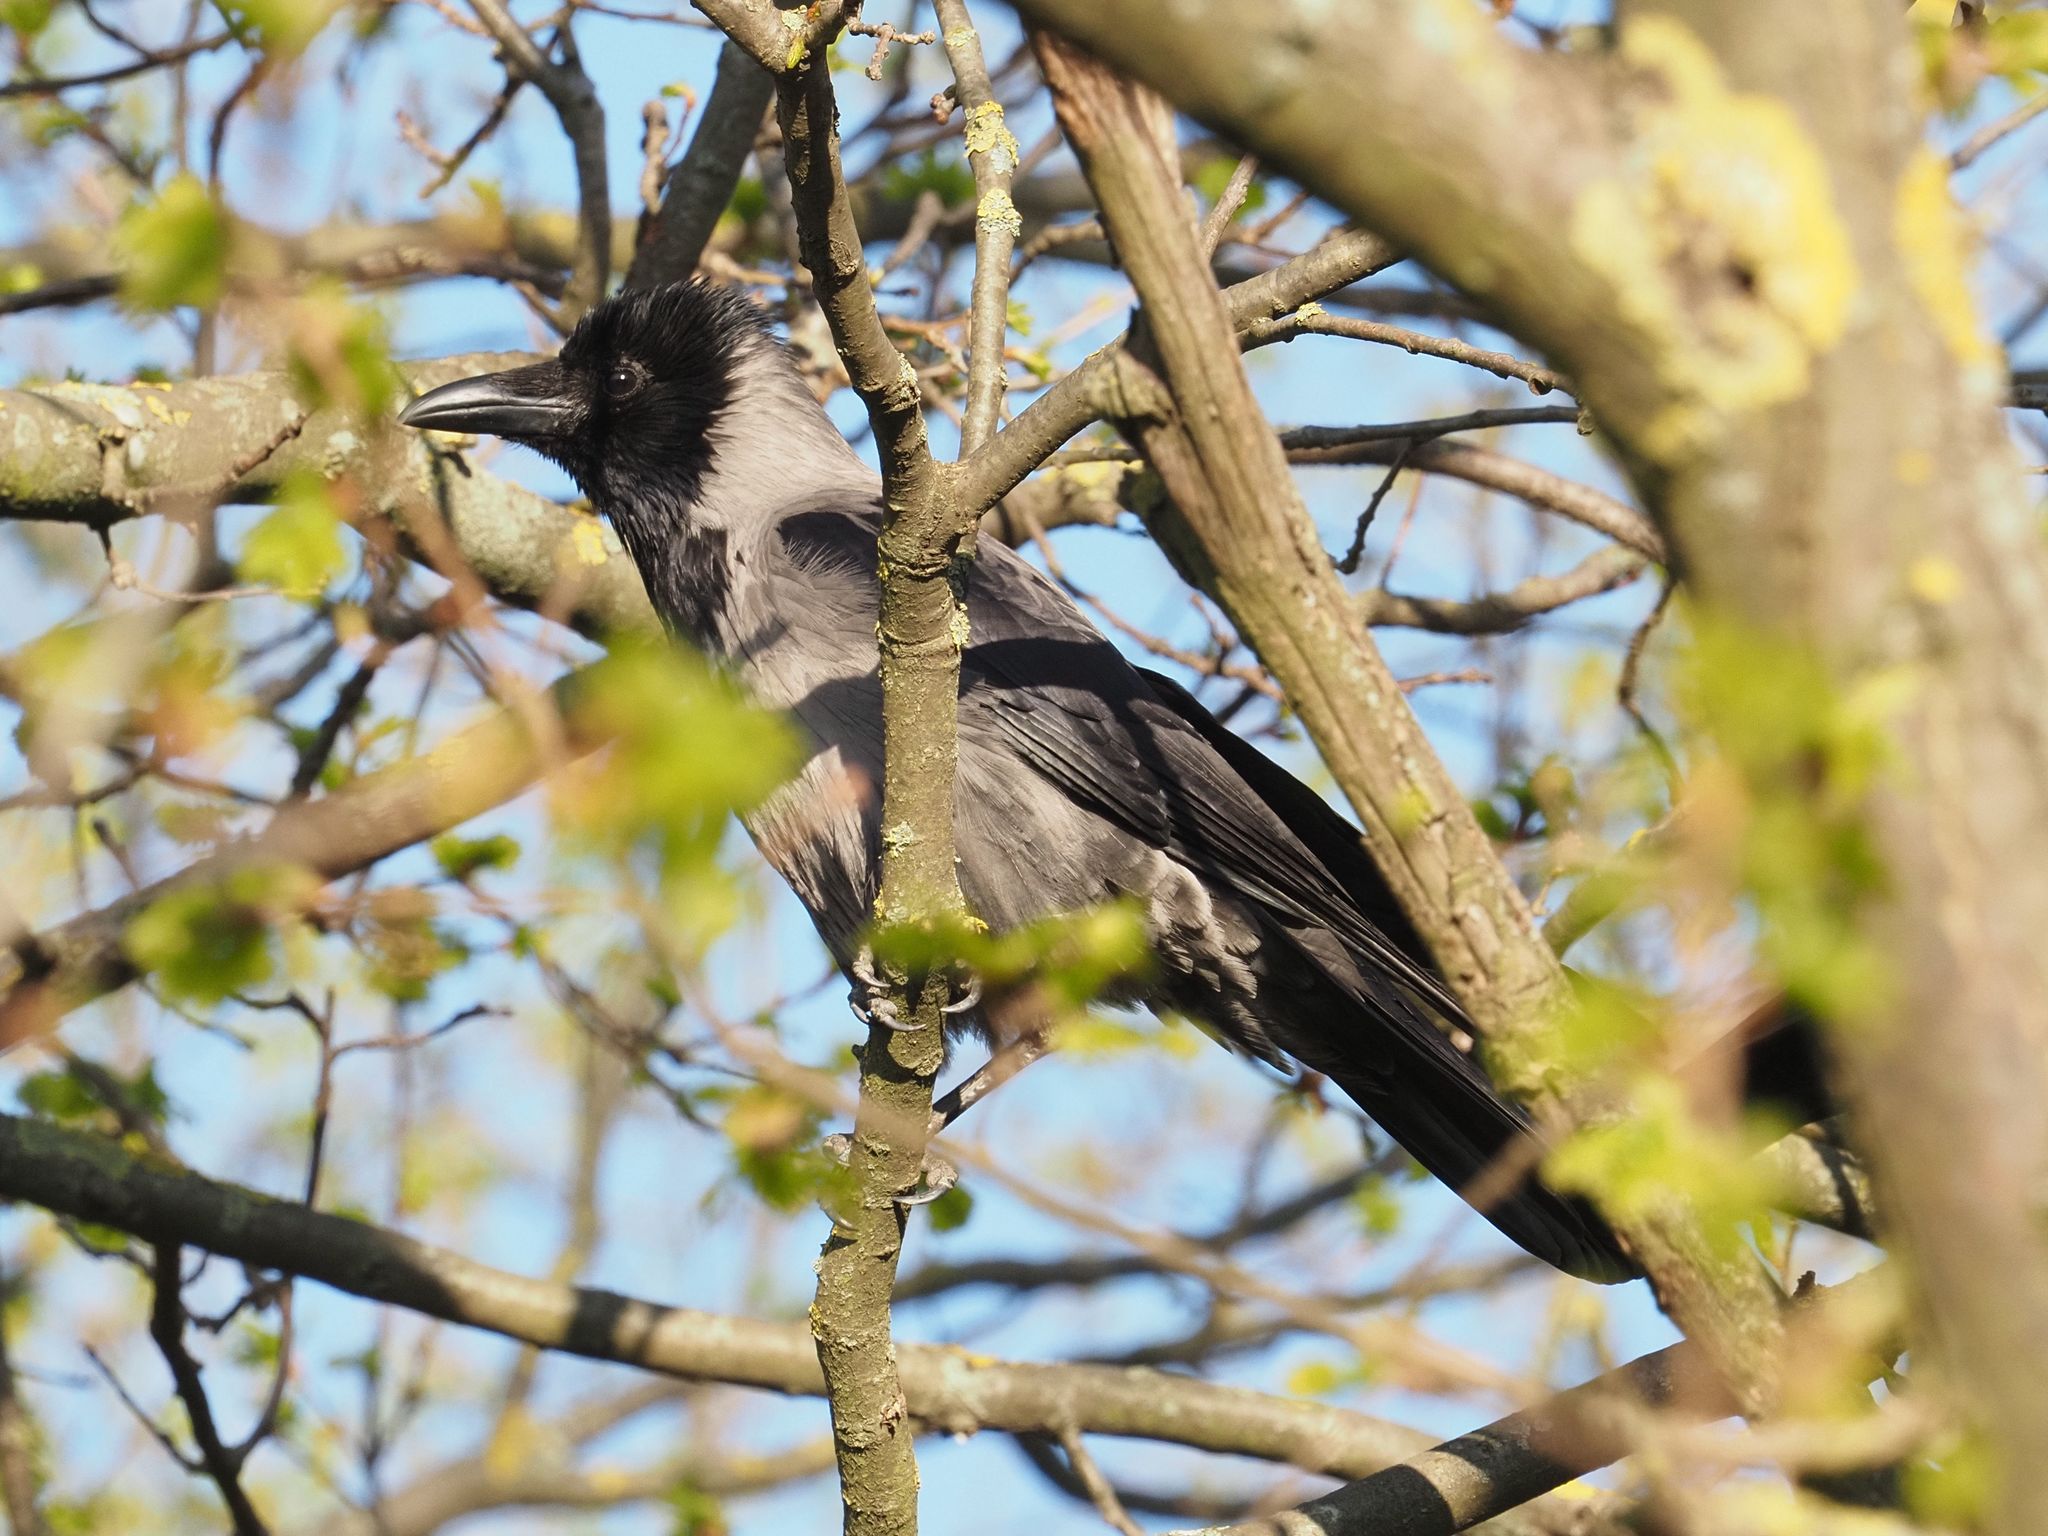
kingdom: Animalia
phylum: Chordata
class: Aves
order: Passeriformes
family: Corvidae
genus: Corvus
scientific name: Corvus cornix
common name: Hooded crow
